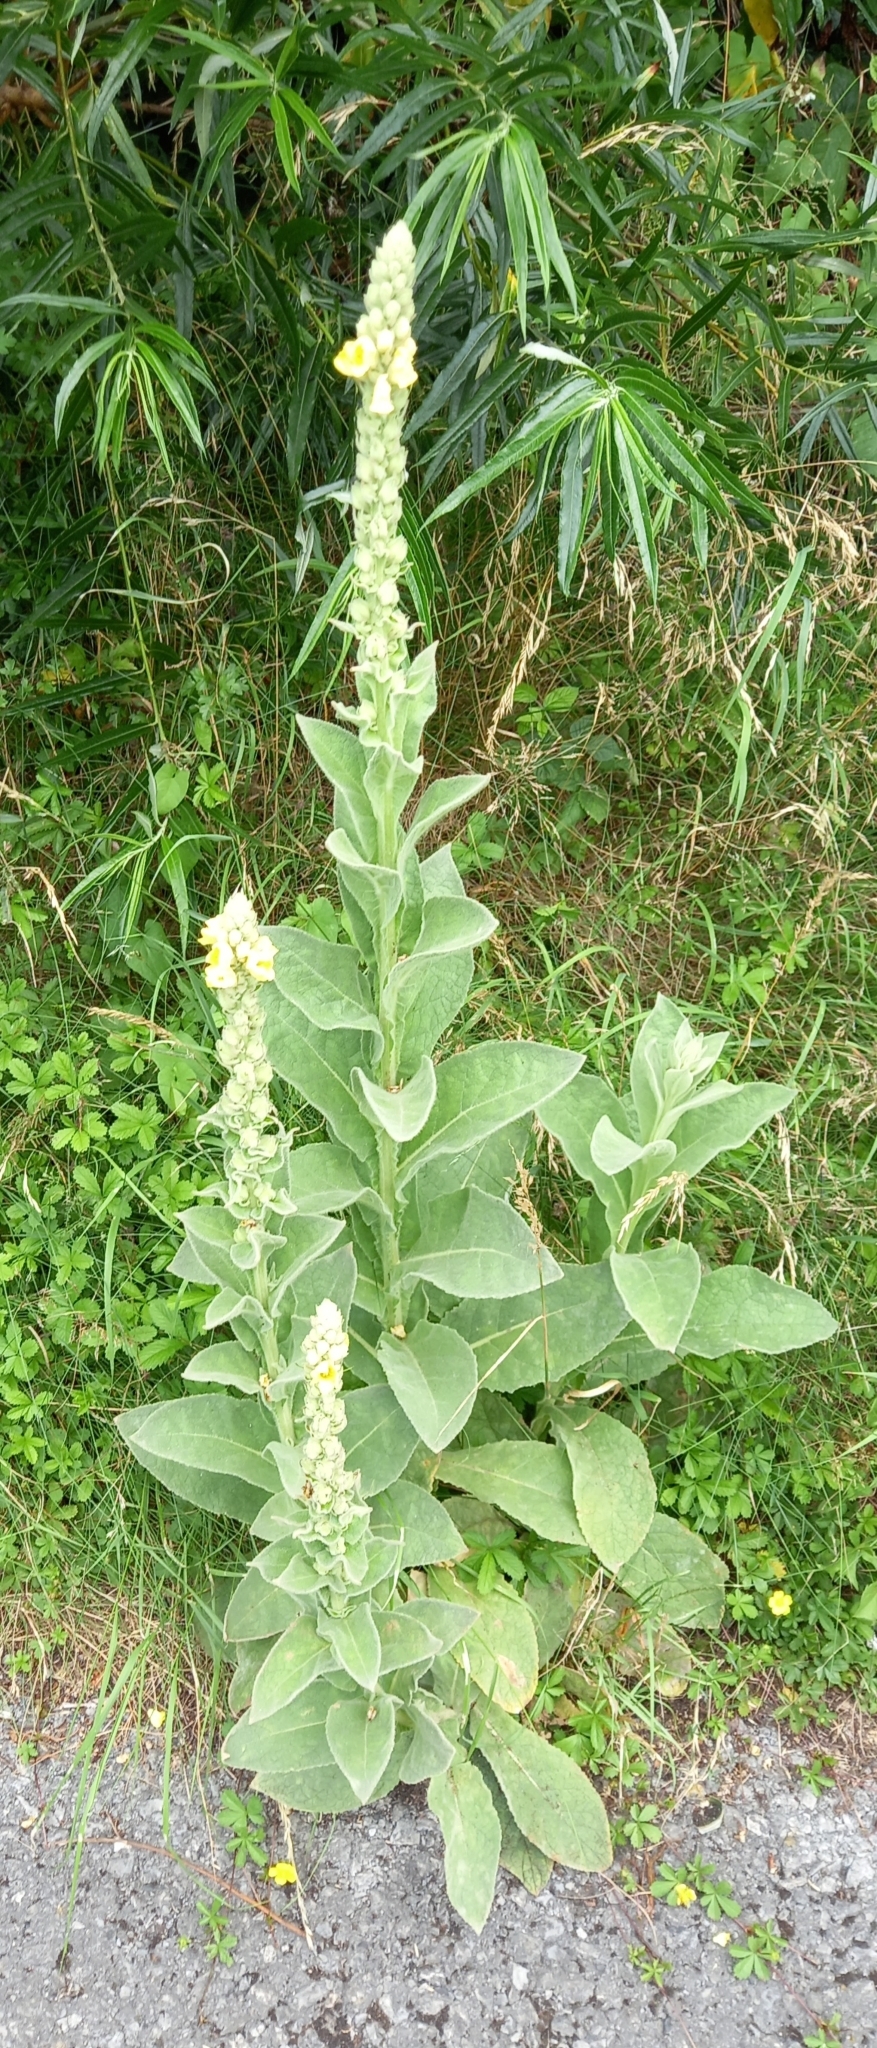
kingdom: Plantae
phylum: Tracheophyta
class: Magnoliopsida
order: Lamiales
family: Scrophulariaceae
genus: Verbascum
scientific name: Verbascum thapsus
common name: Common mullein
